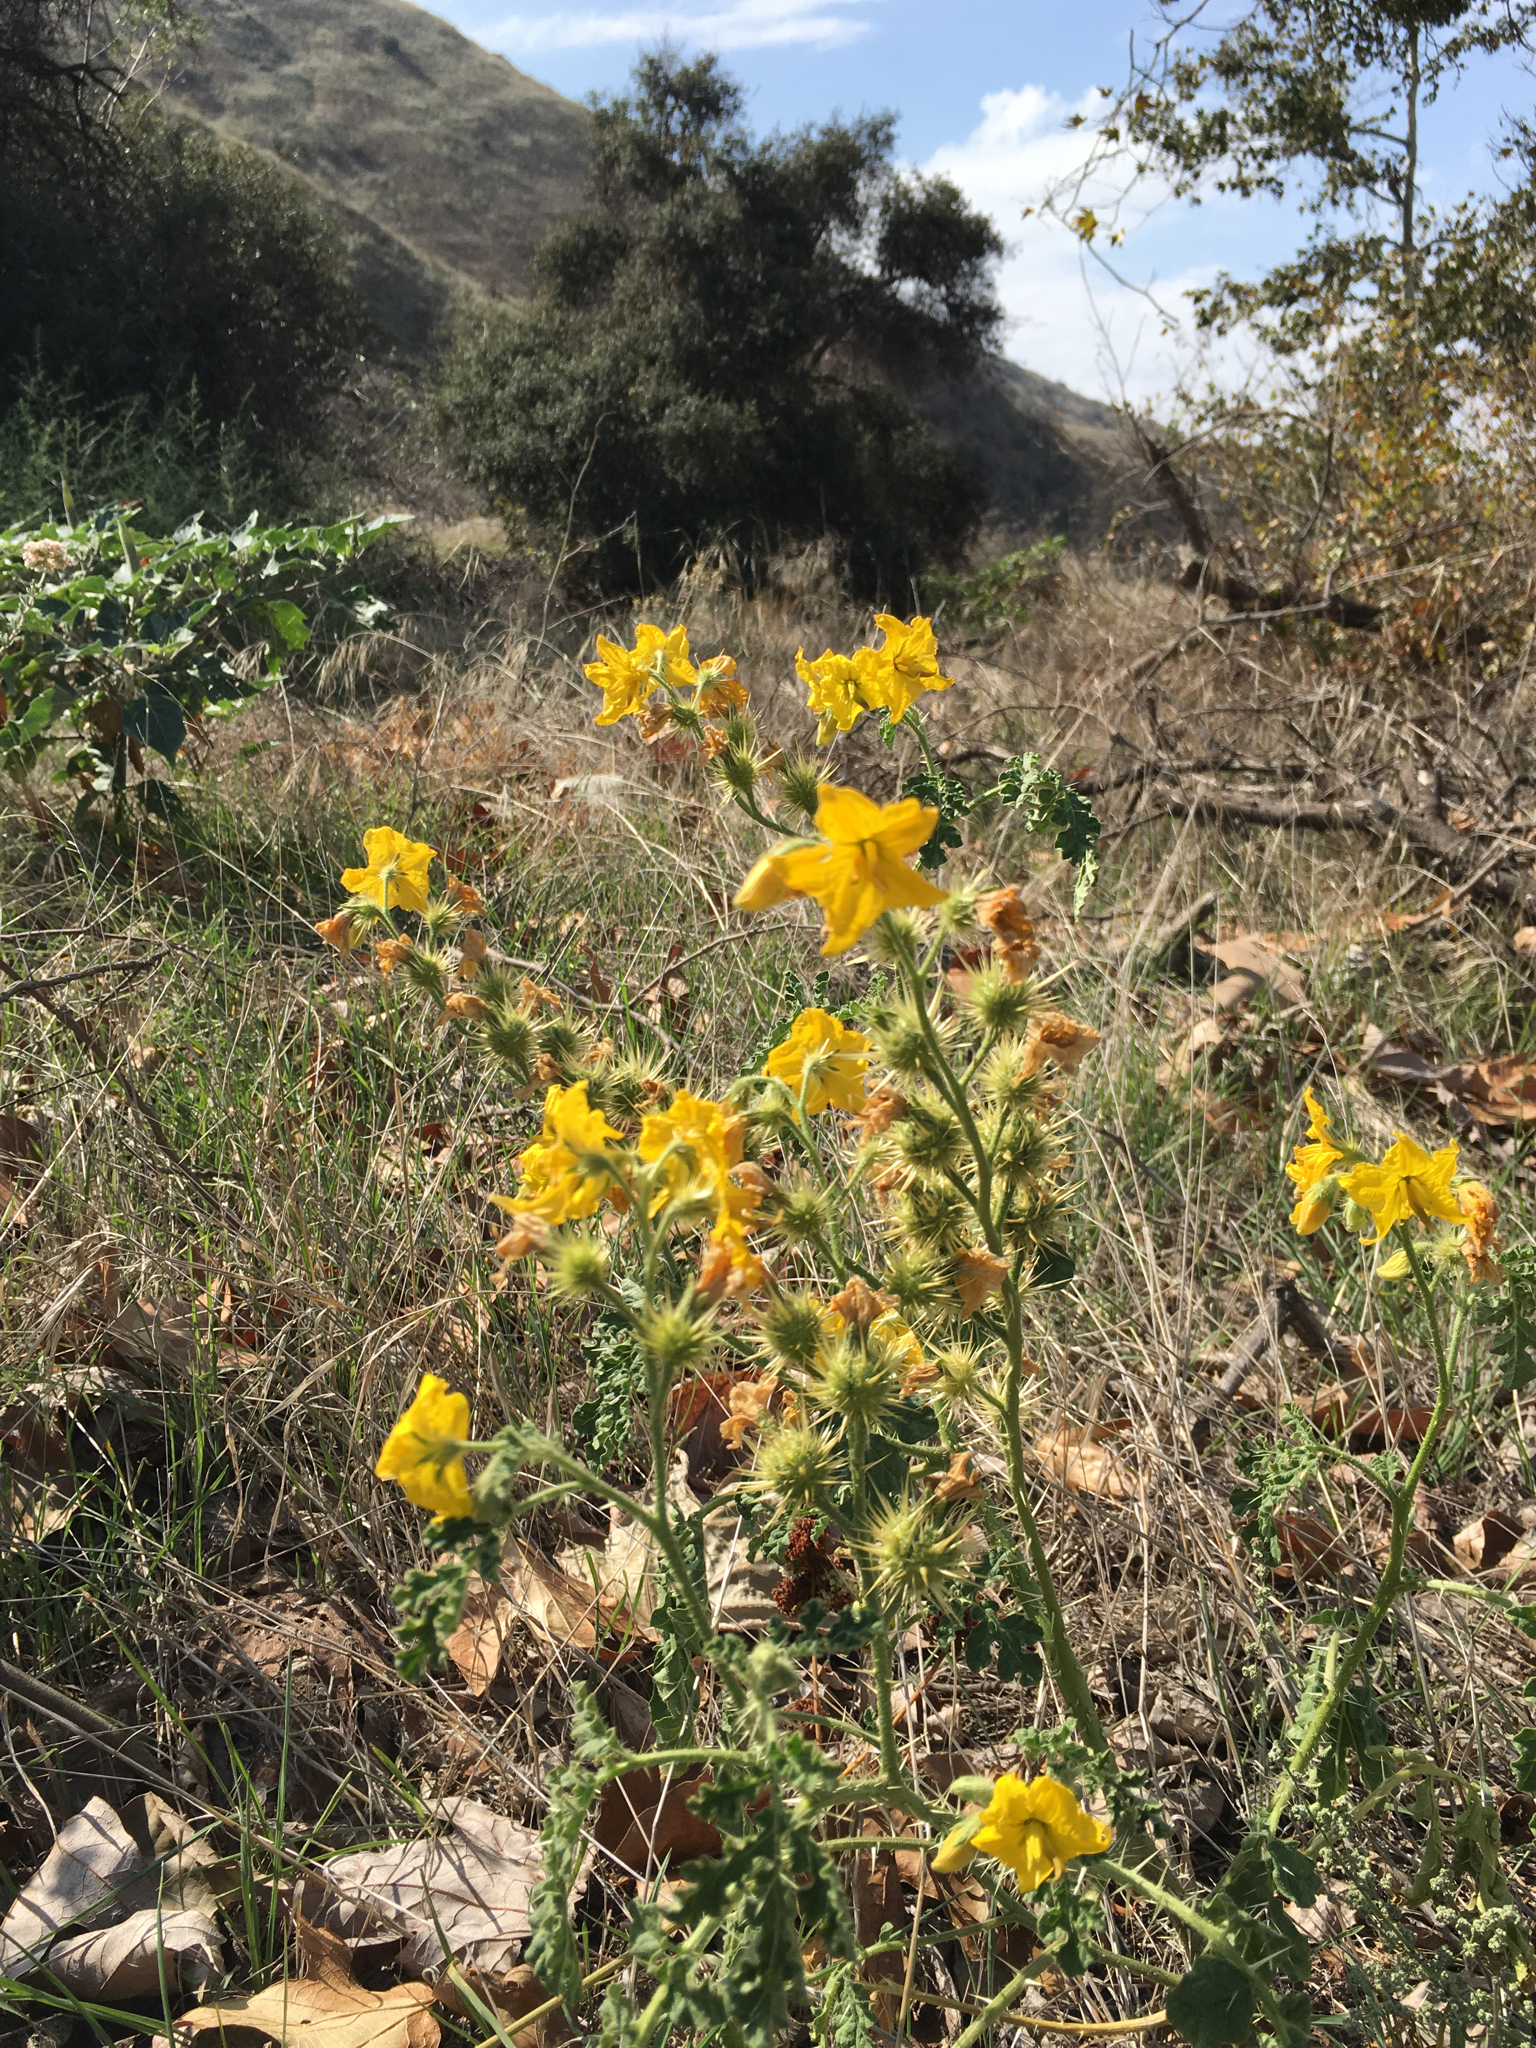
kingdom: Plantae
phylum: Tracheophyta
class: Magnoliopsida
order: Solanales
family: Solanaceae
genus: Solanum
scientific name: Solanum angustifolium
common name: Buffalobur nightshade
